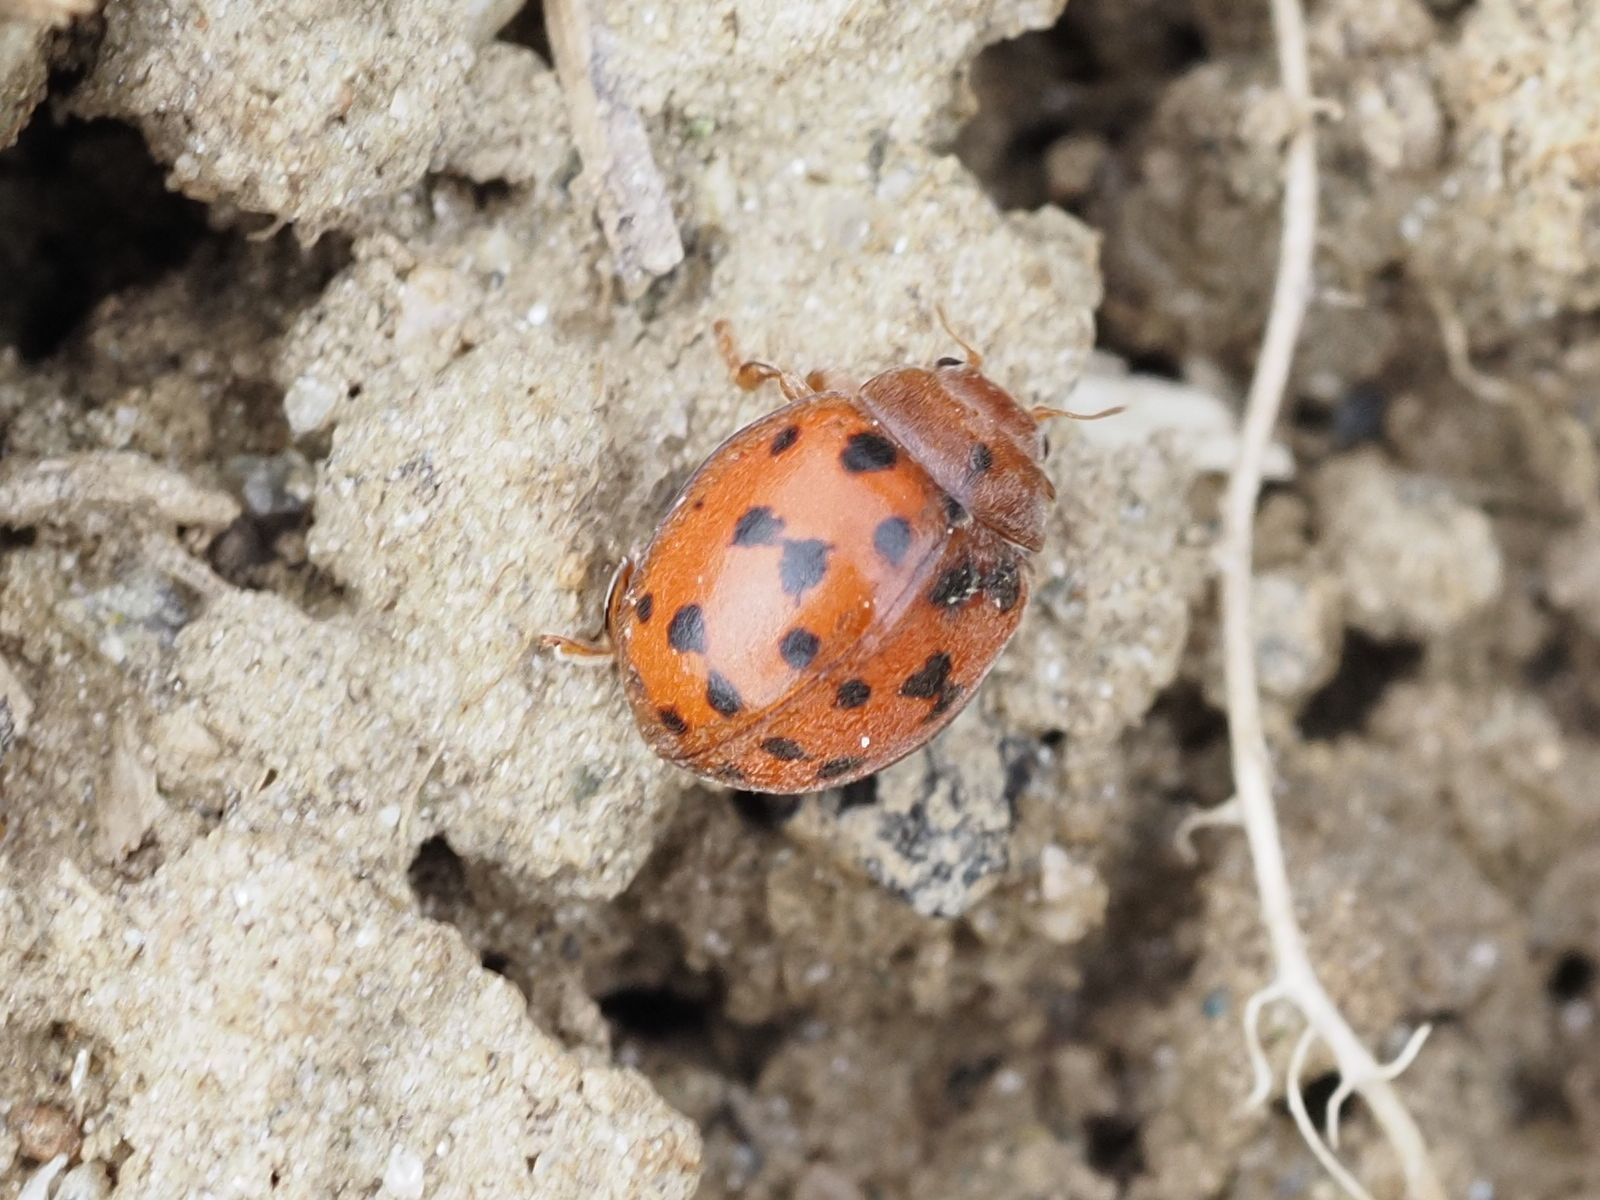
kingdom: Animalia
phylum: Arthropoda
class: Insecta
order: Coleoptera
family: Coccinellidae
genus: Subcoccinella
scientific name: Subcoccinella vigintiquatuorpunctata
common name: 24-spot ladybird
